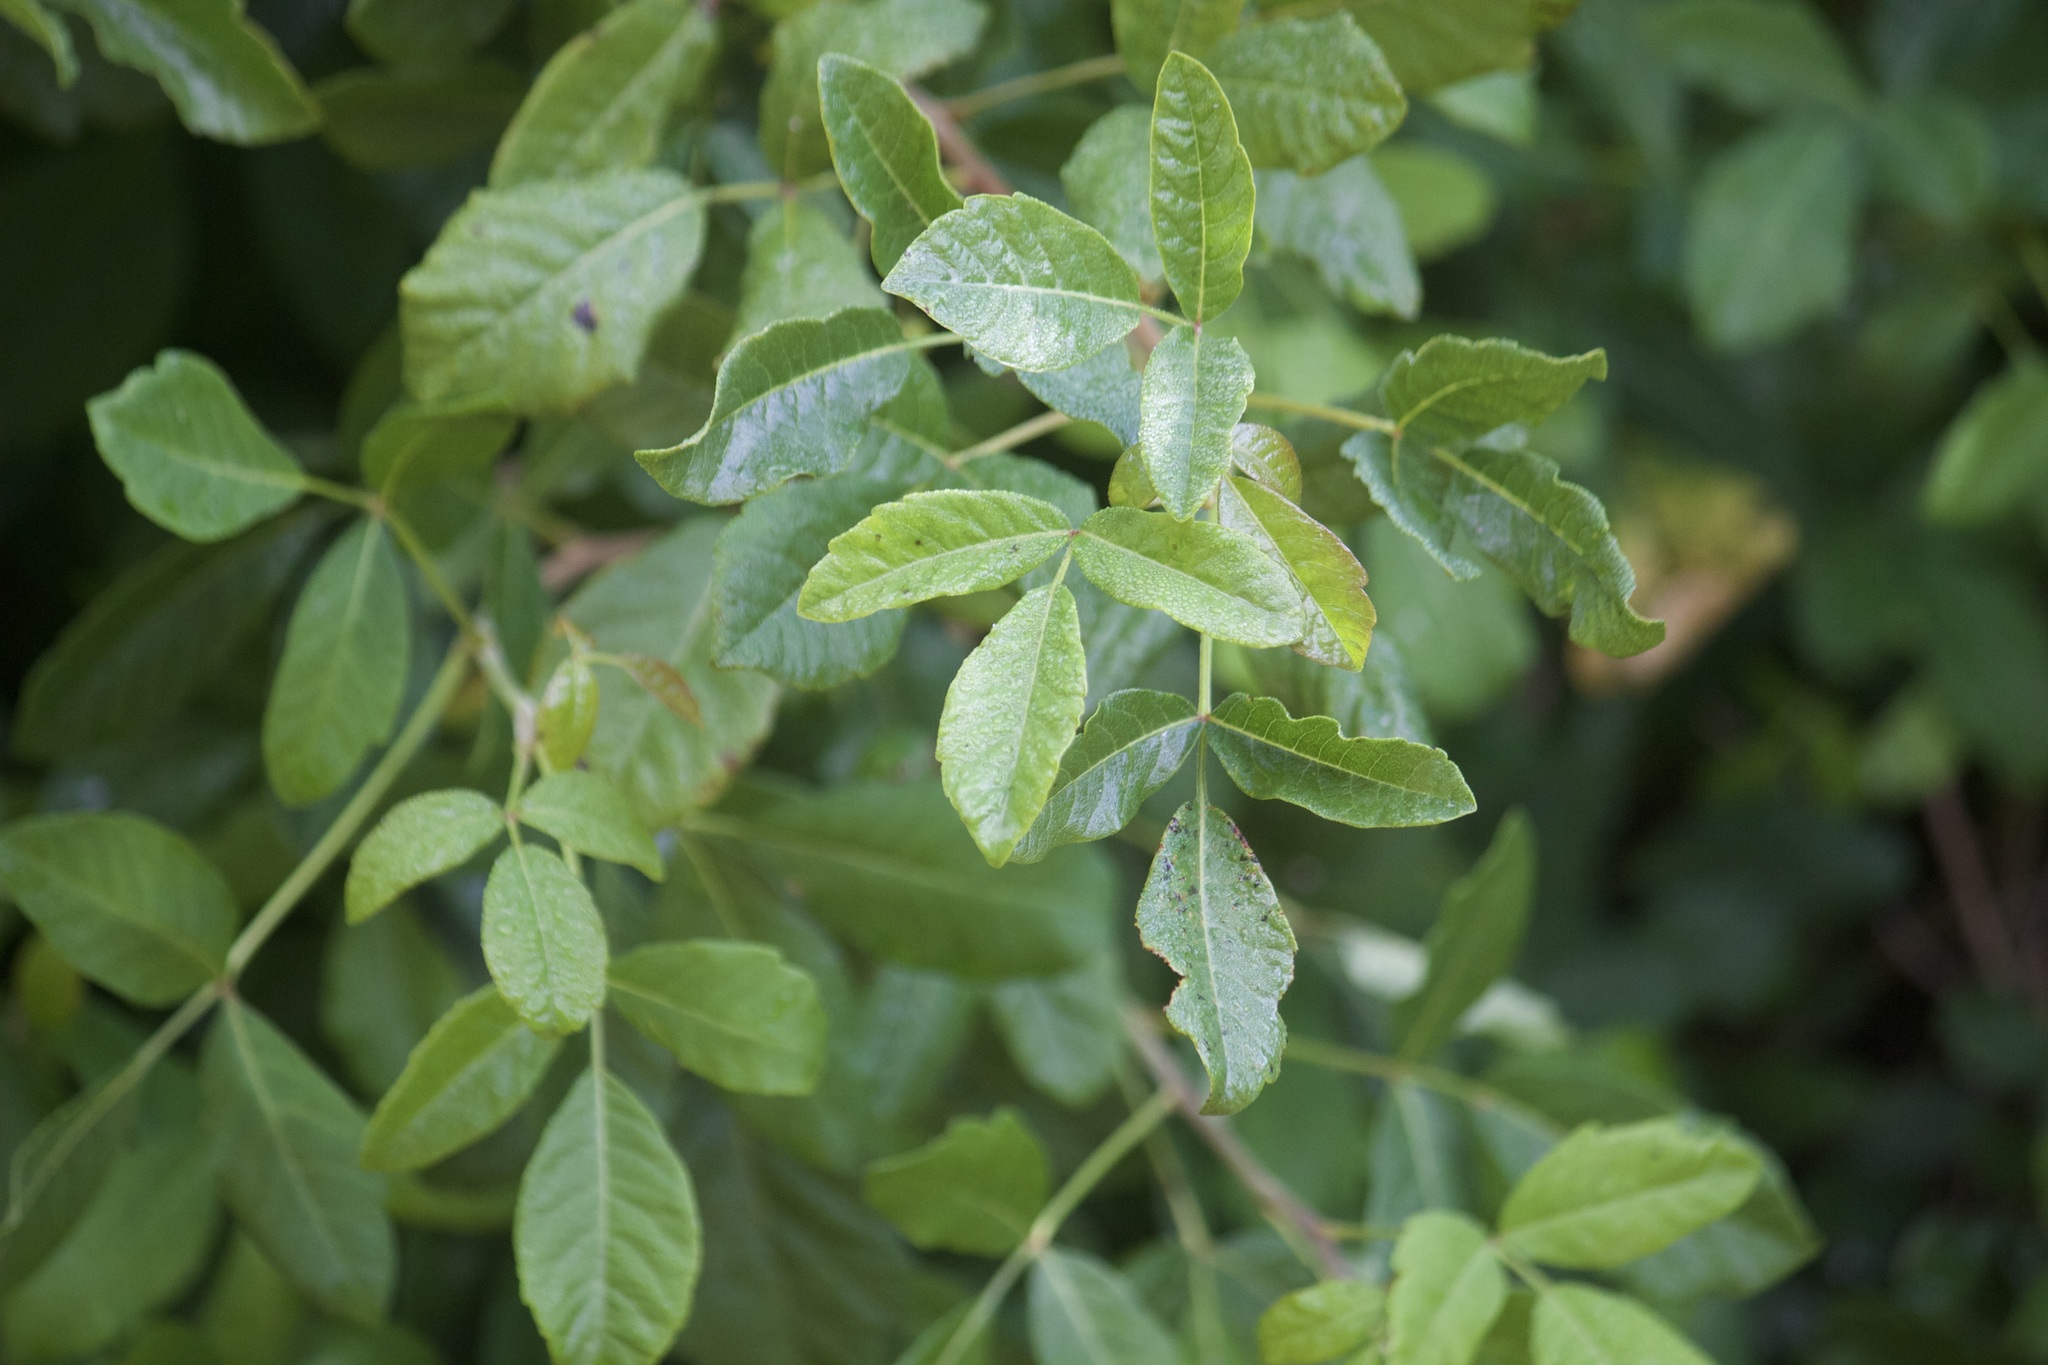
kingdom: Plantae
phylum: Tracheophyta
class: Magnoliopsida
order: Sapindales
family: Anacardiaceae
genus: Toxicodendron
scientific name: Toxicodendron diversilobum
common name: Pacific poison-oak
